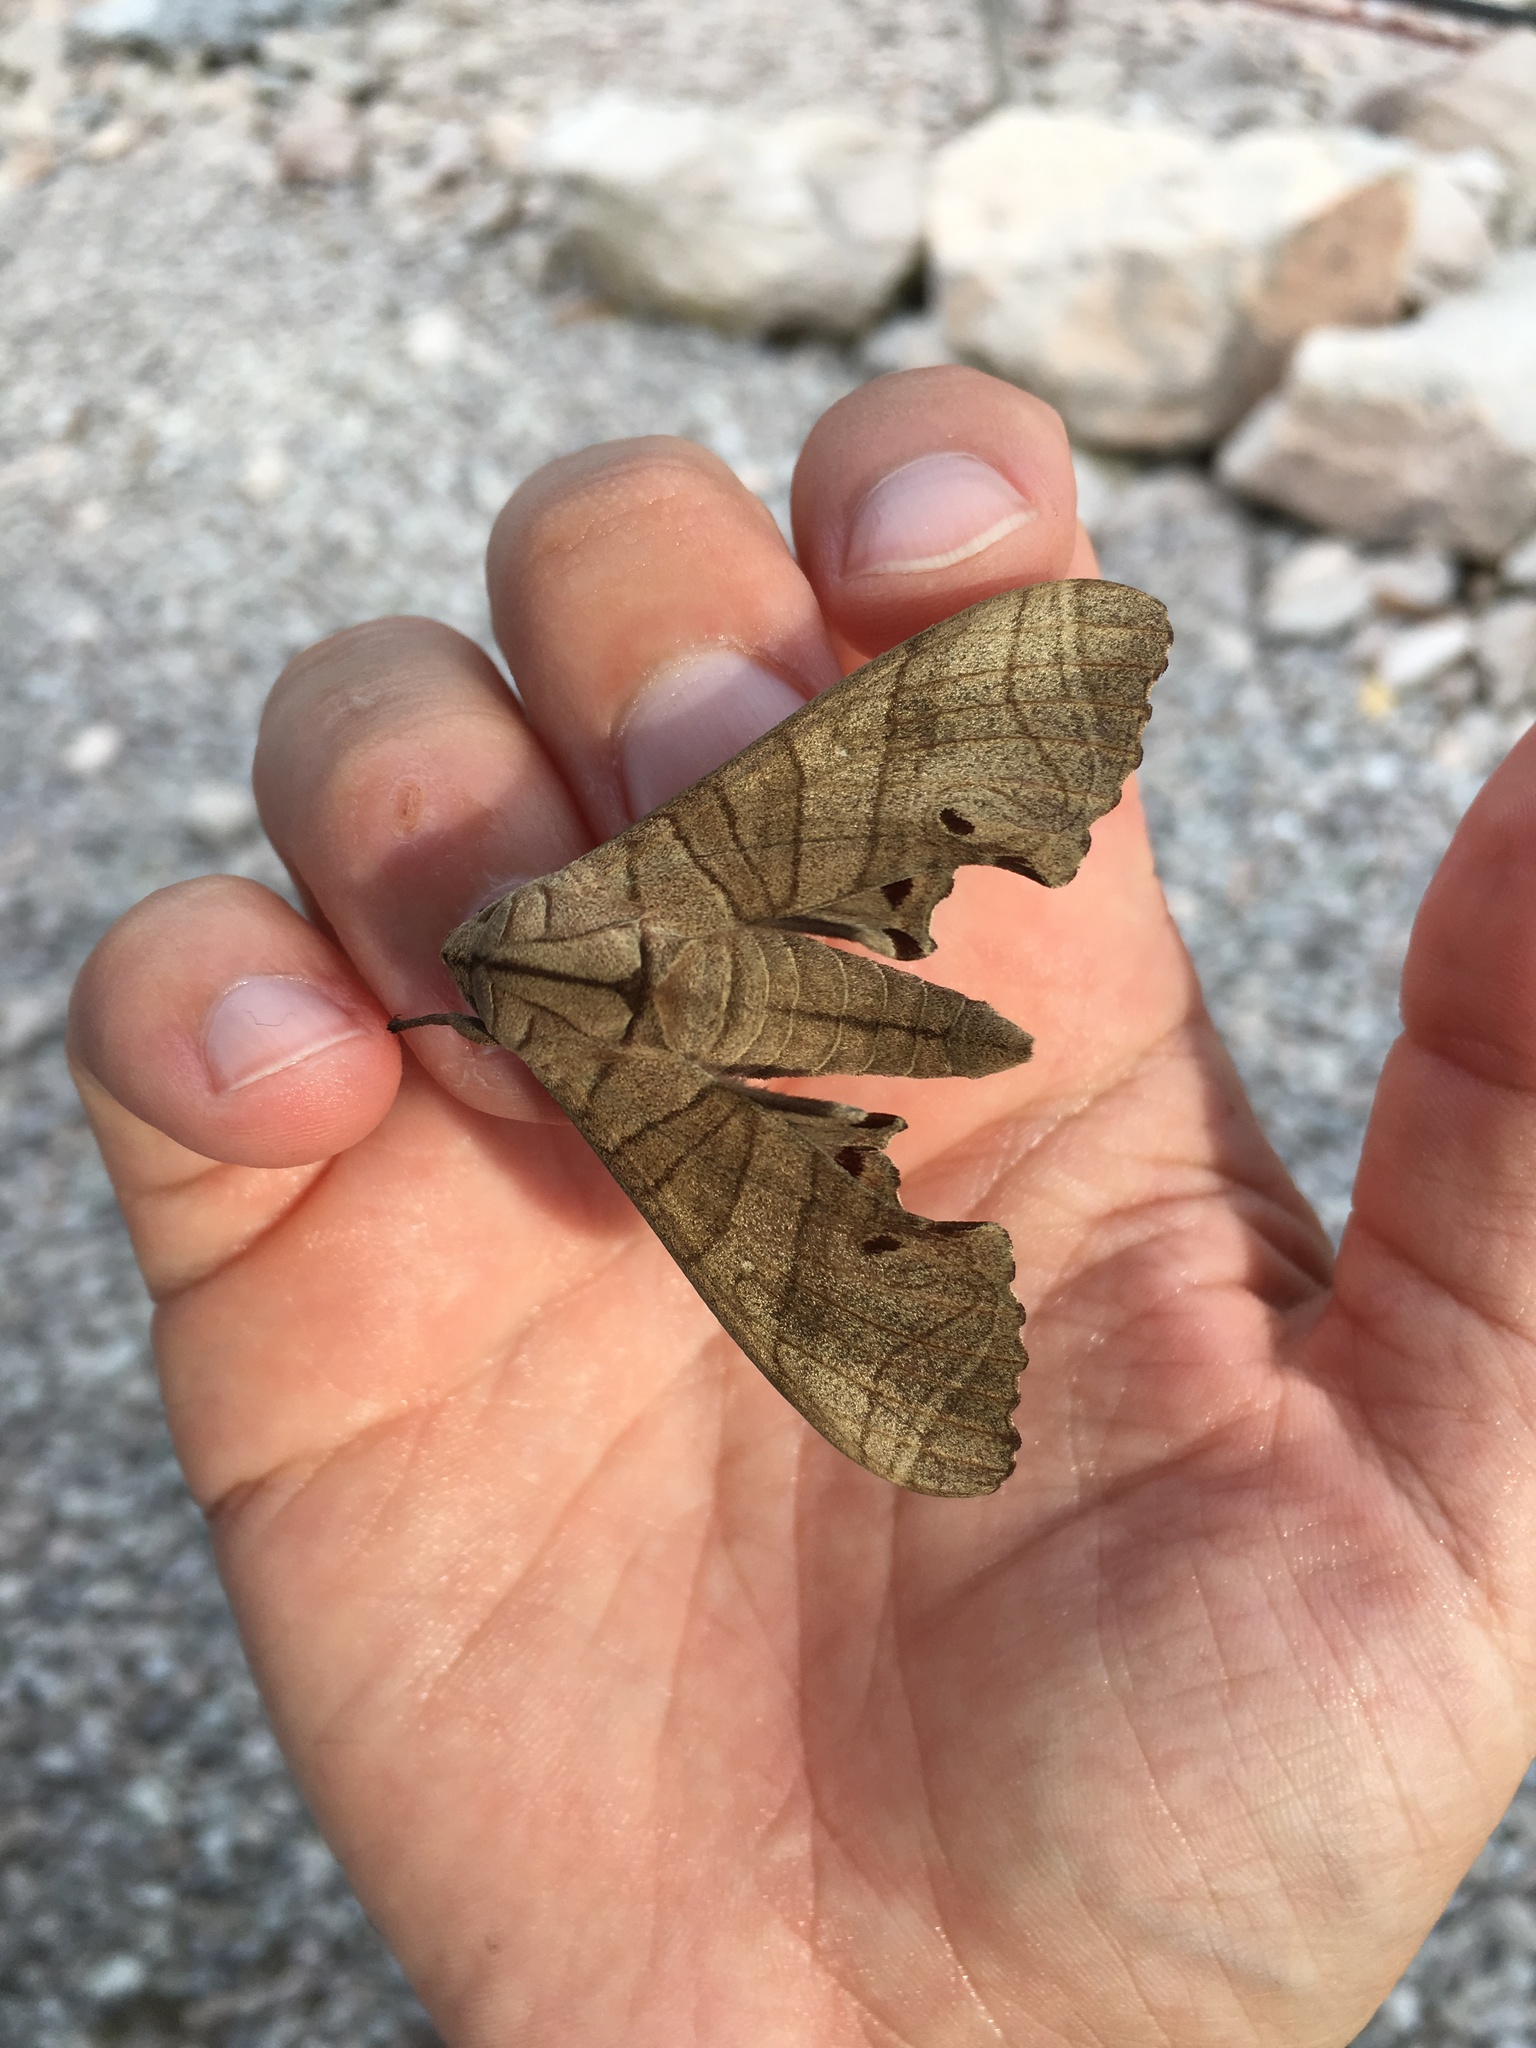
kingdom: Animalia
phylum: Arthropoda
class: Insecta
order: Lepidoptera
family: Sphingidae
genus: Marumba
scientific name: Marumba dyras
